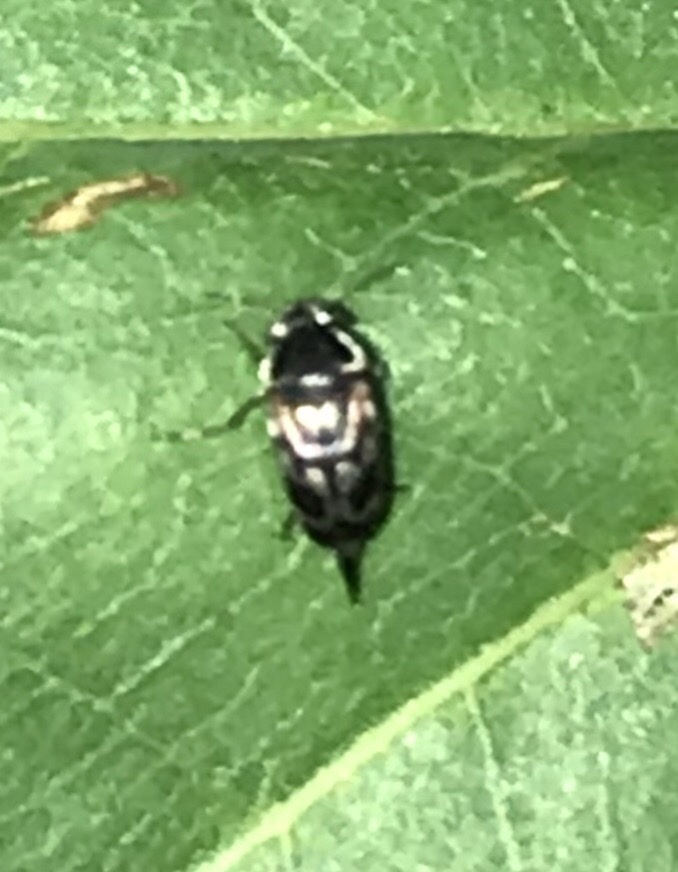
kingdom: Animalia
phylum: Arthropoda
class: Insecta
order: Coleoptera
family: Mordellidae
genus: Paramordellaria
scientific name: Paramordellaria carinata
